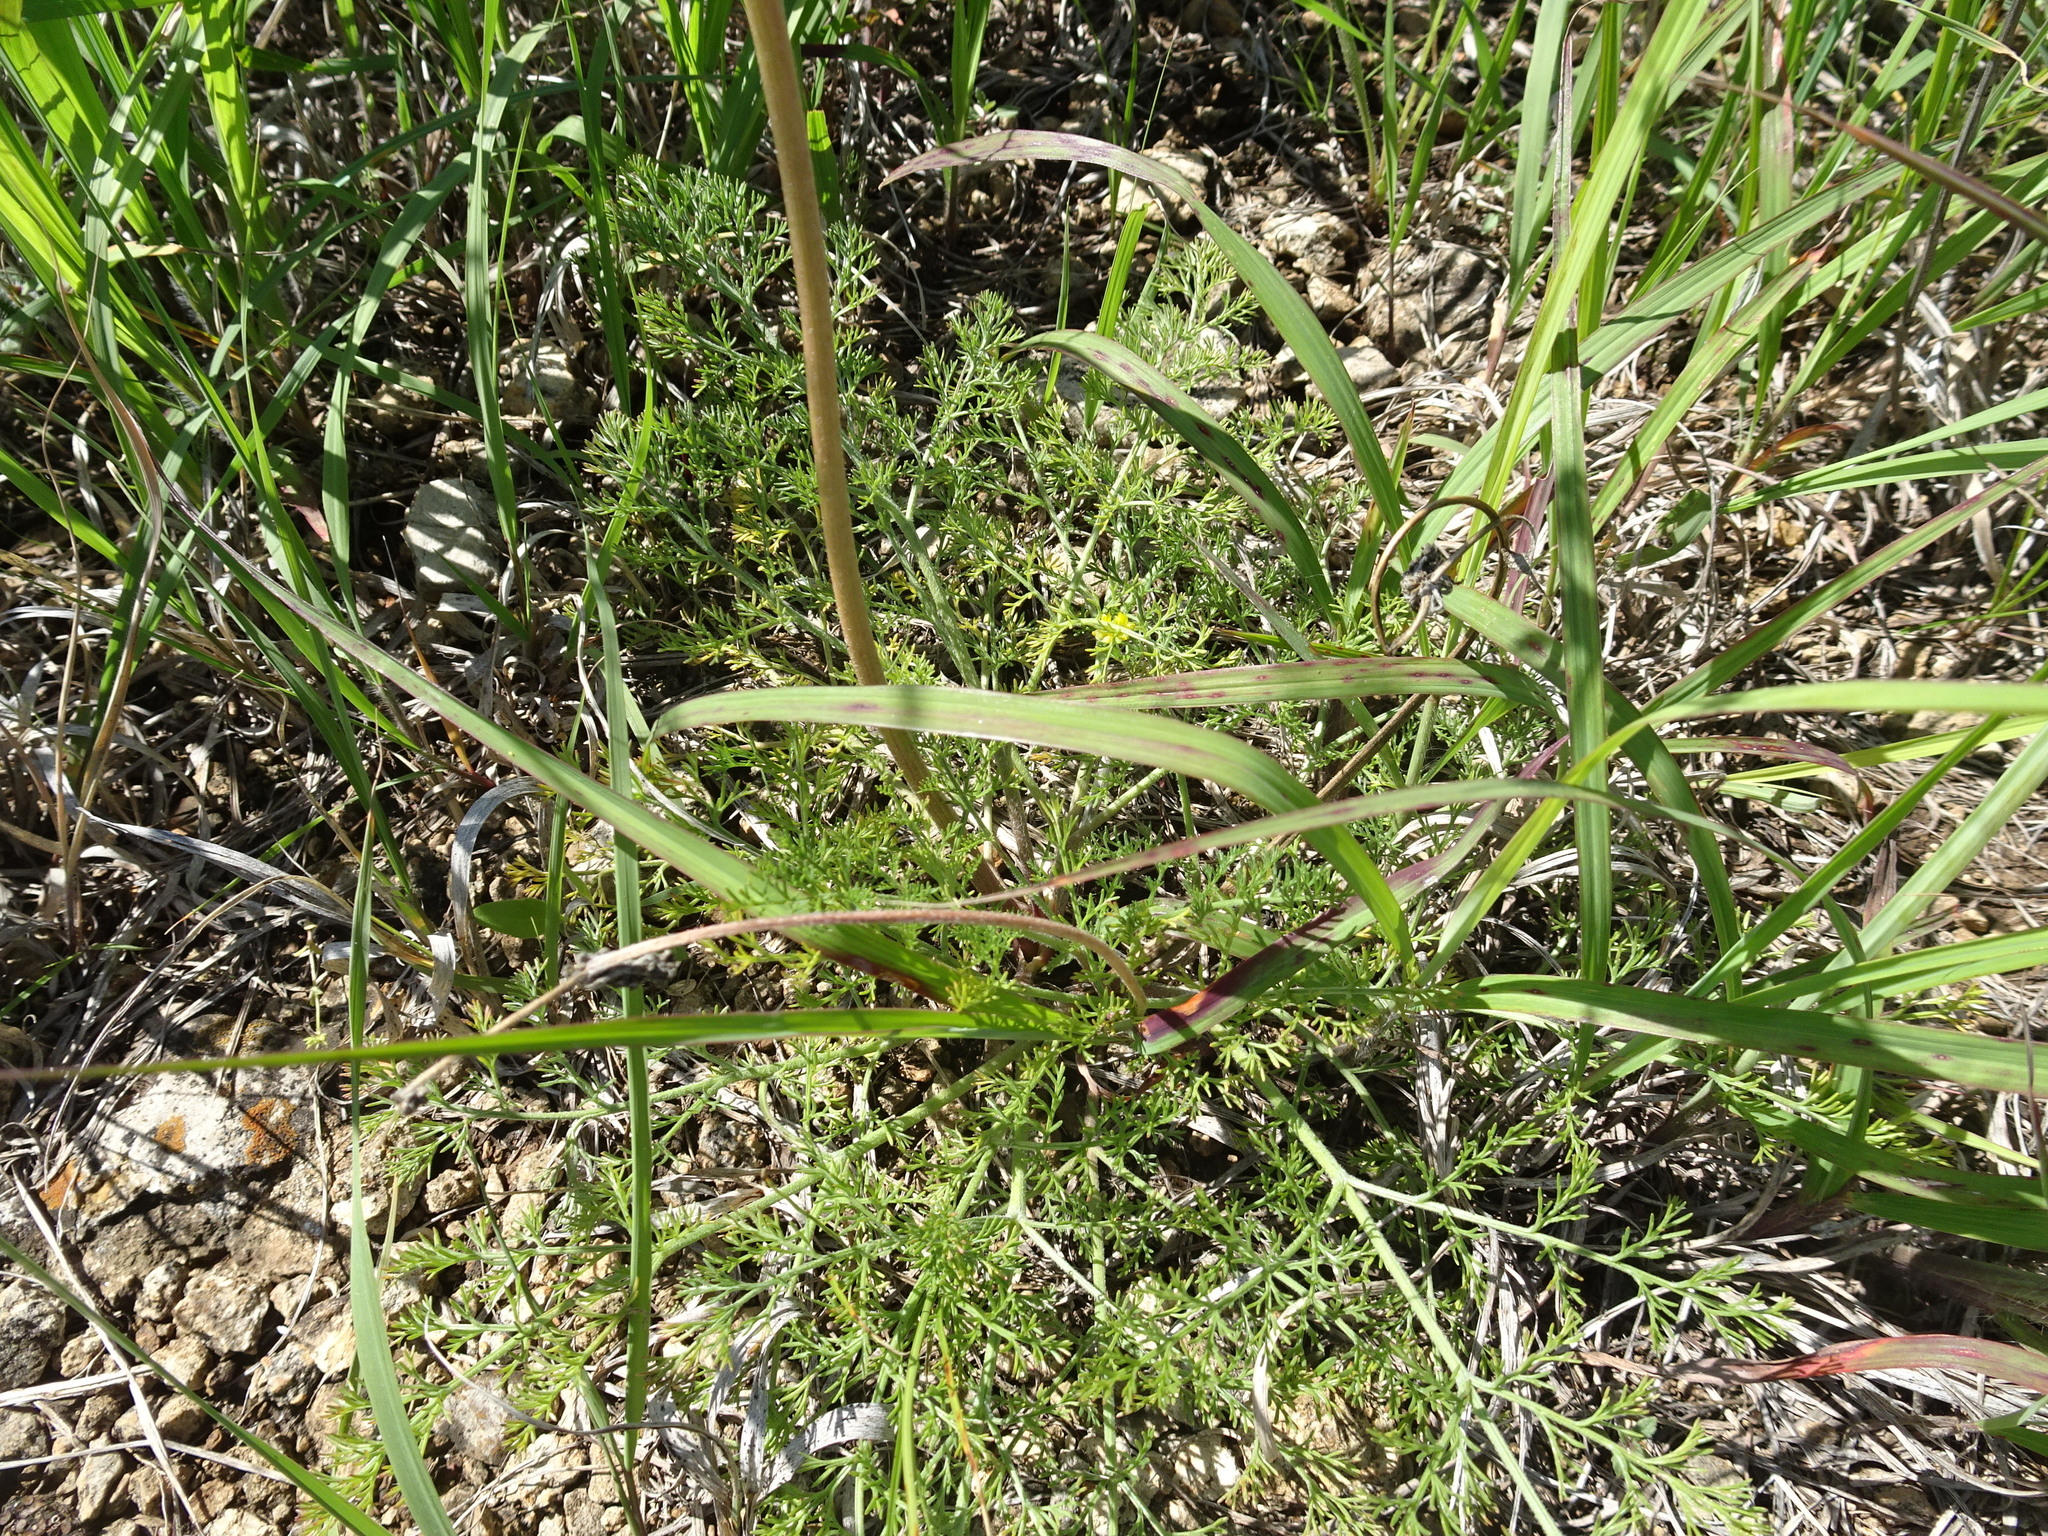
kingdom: Plantae
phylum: Tracheophyta
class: Magnoliopsida
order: Apiales
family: Apiaceae
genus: Lomatium
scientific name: Lomatium foeniculaceum
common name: Desert-parsley
